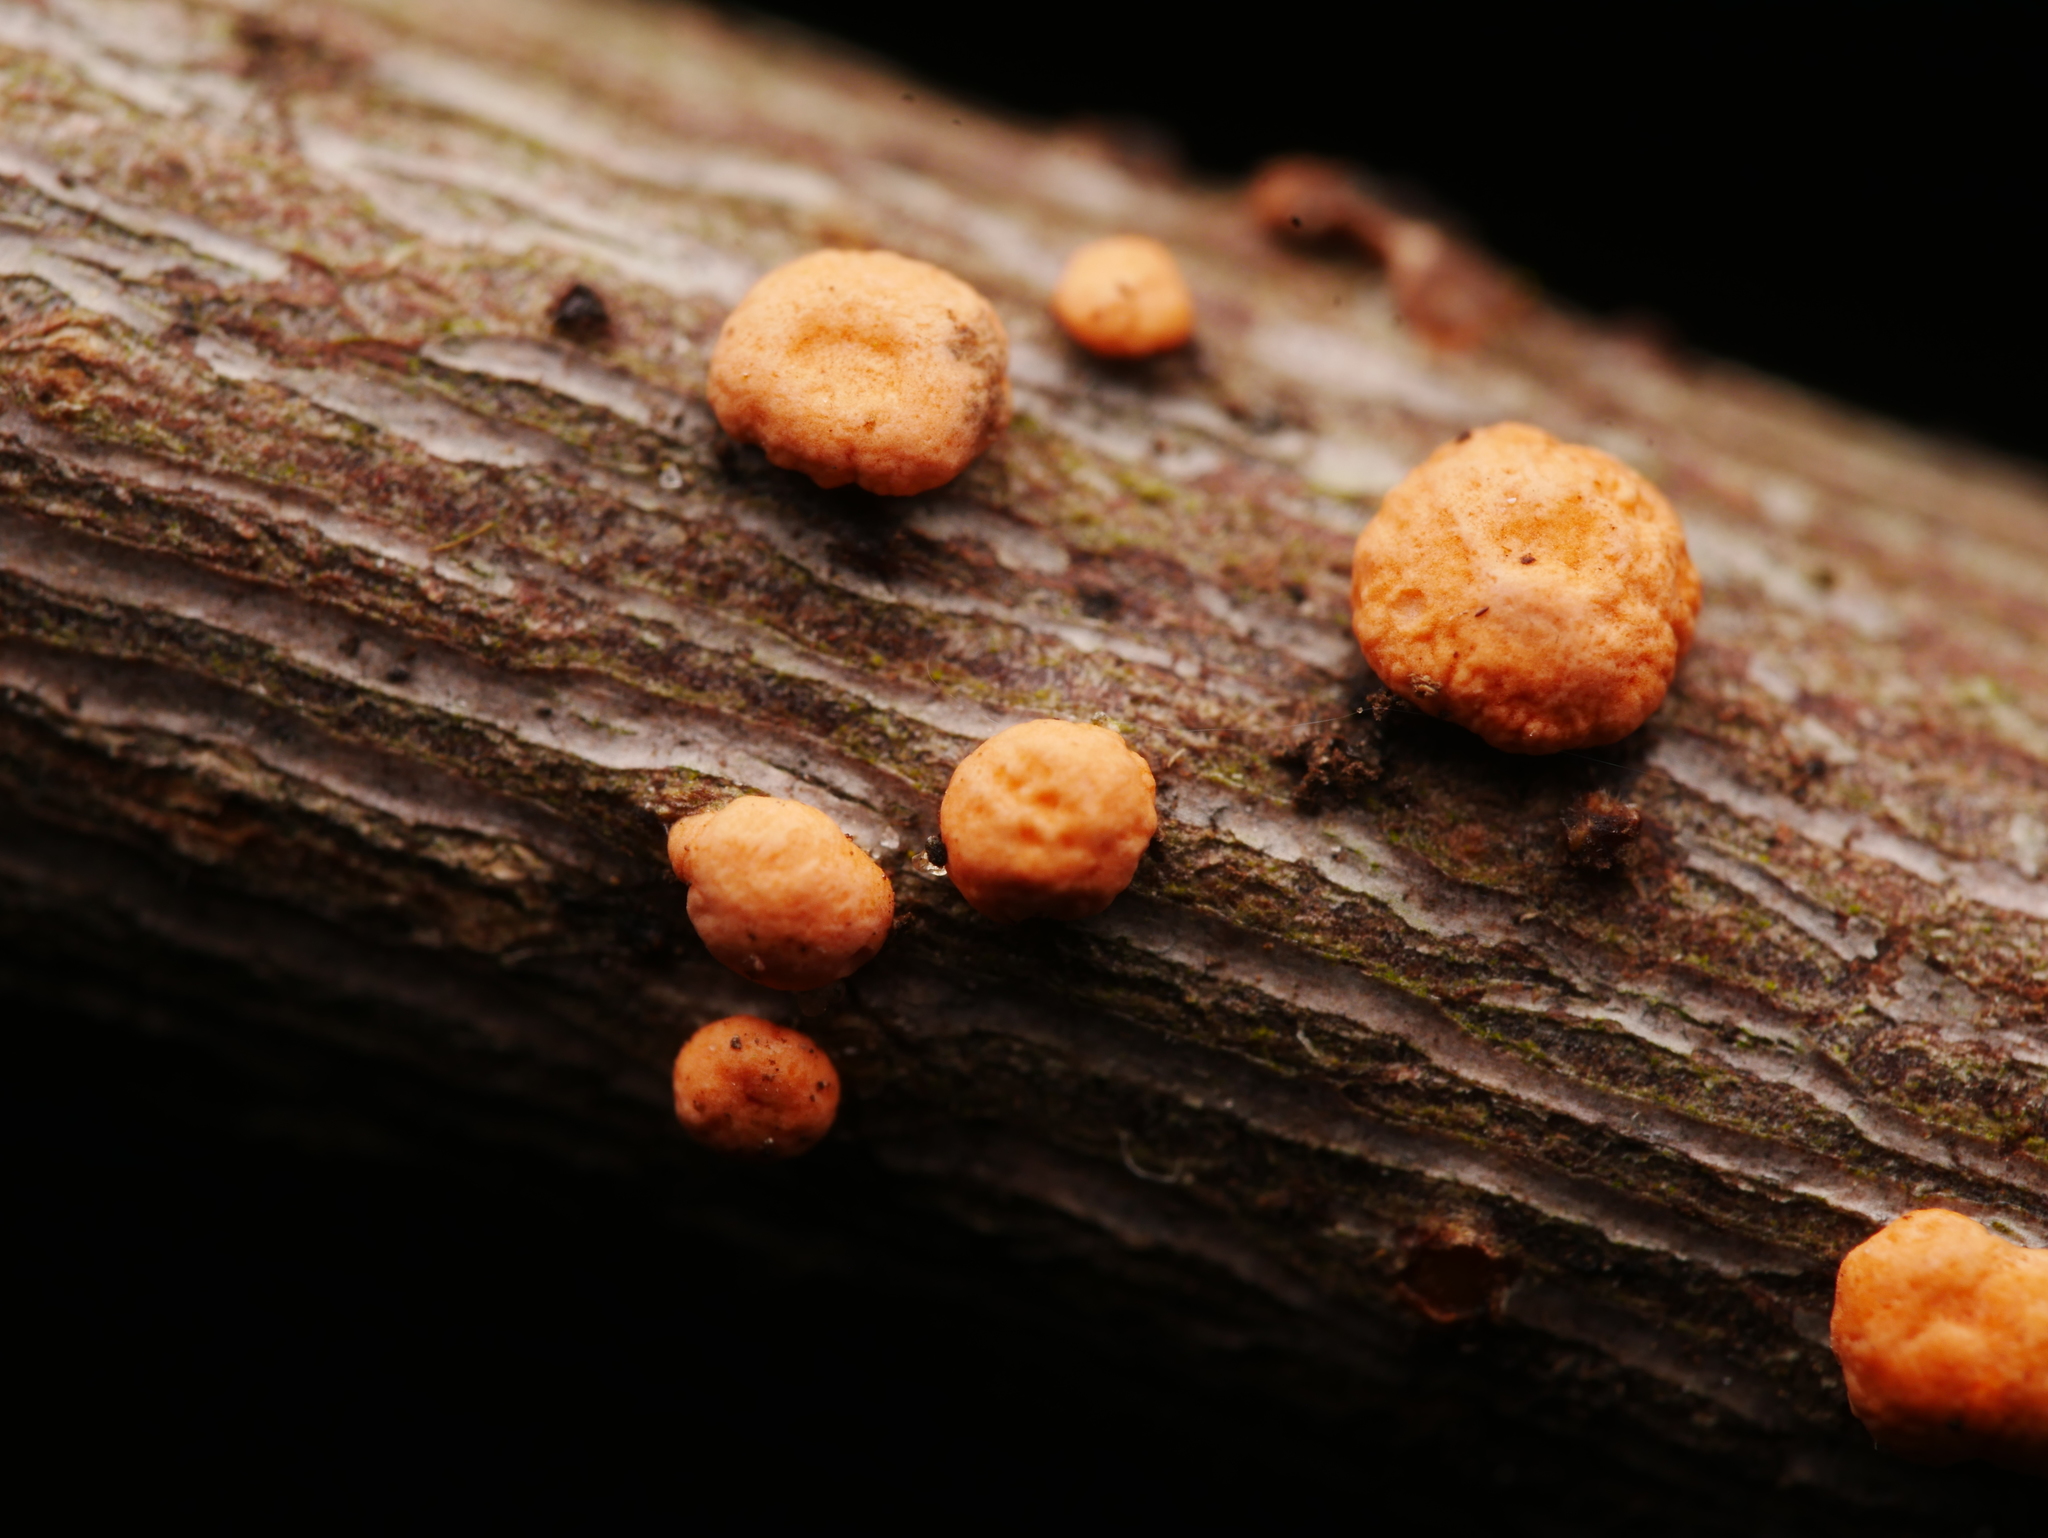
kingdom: Fungi
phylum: Ascomycota
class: Sordariomycetes
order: Hypocreales
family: Nectriaceae
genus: Nectria
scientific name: Nectria cinnabarina
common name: Coral spot
